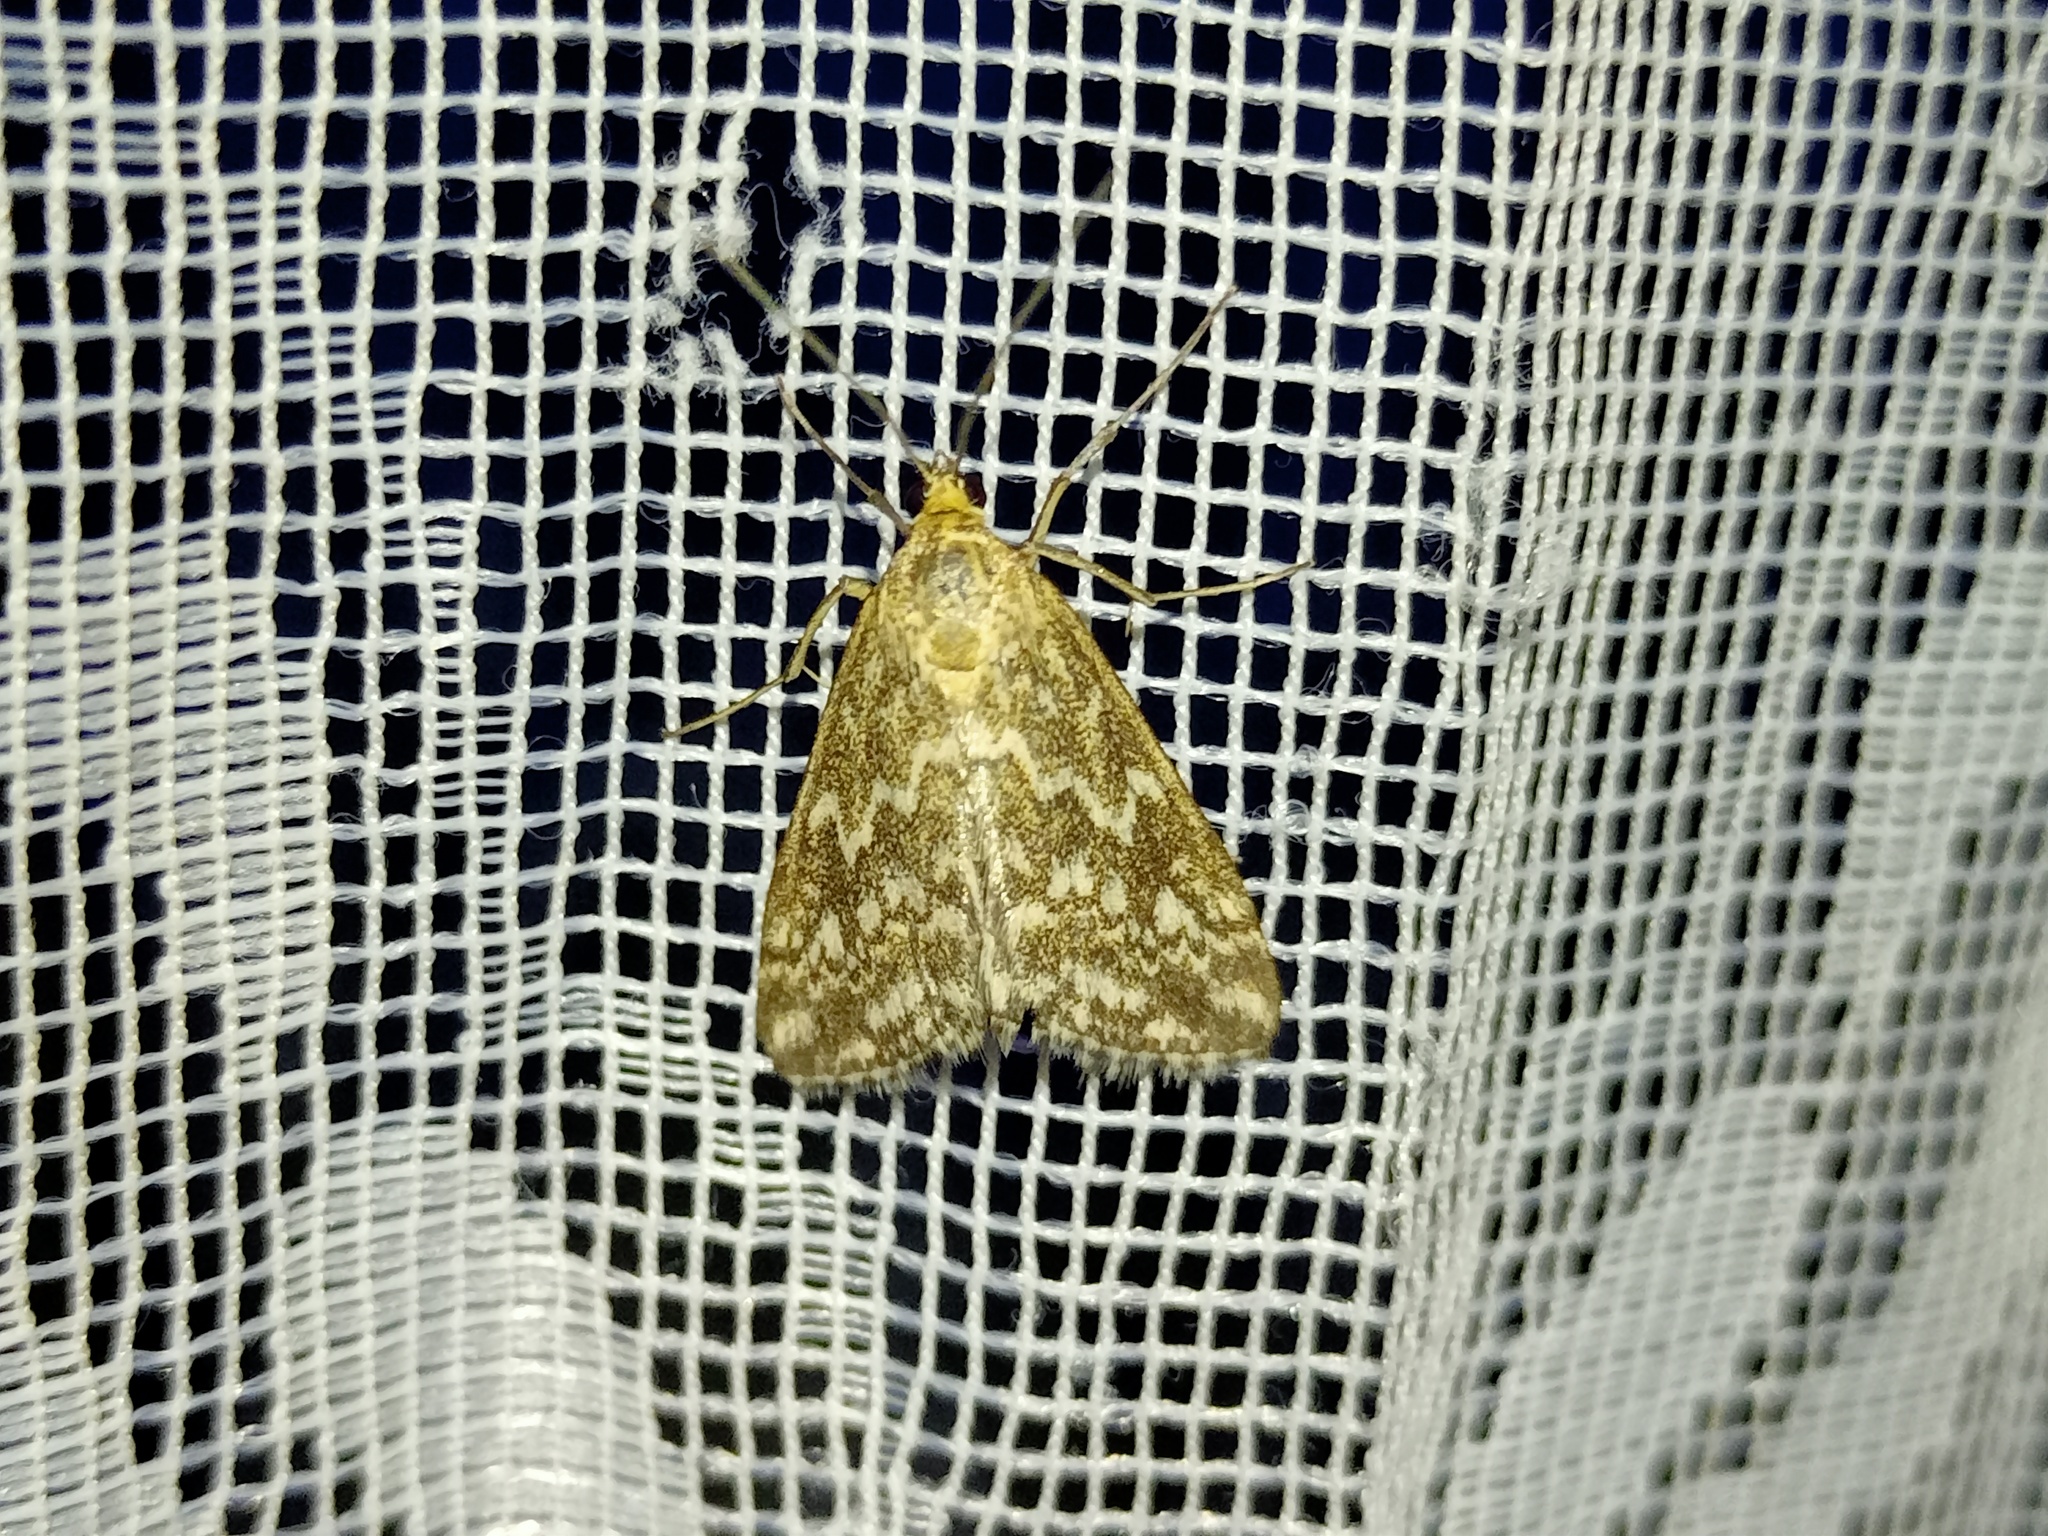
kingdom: Animalia
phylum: Arthropoda
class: Insecta
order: Lepidoptera
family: Crambidae
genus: Evergestis
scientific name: Evergestis frumentalis
